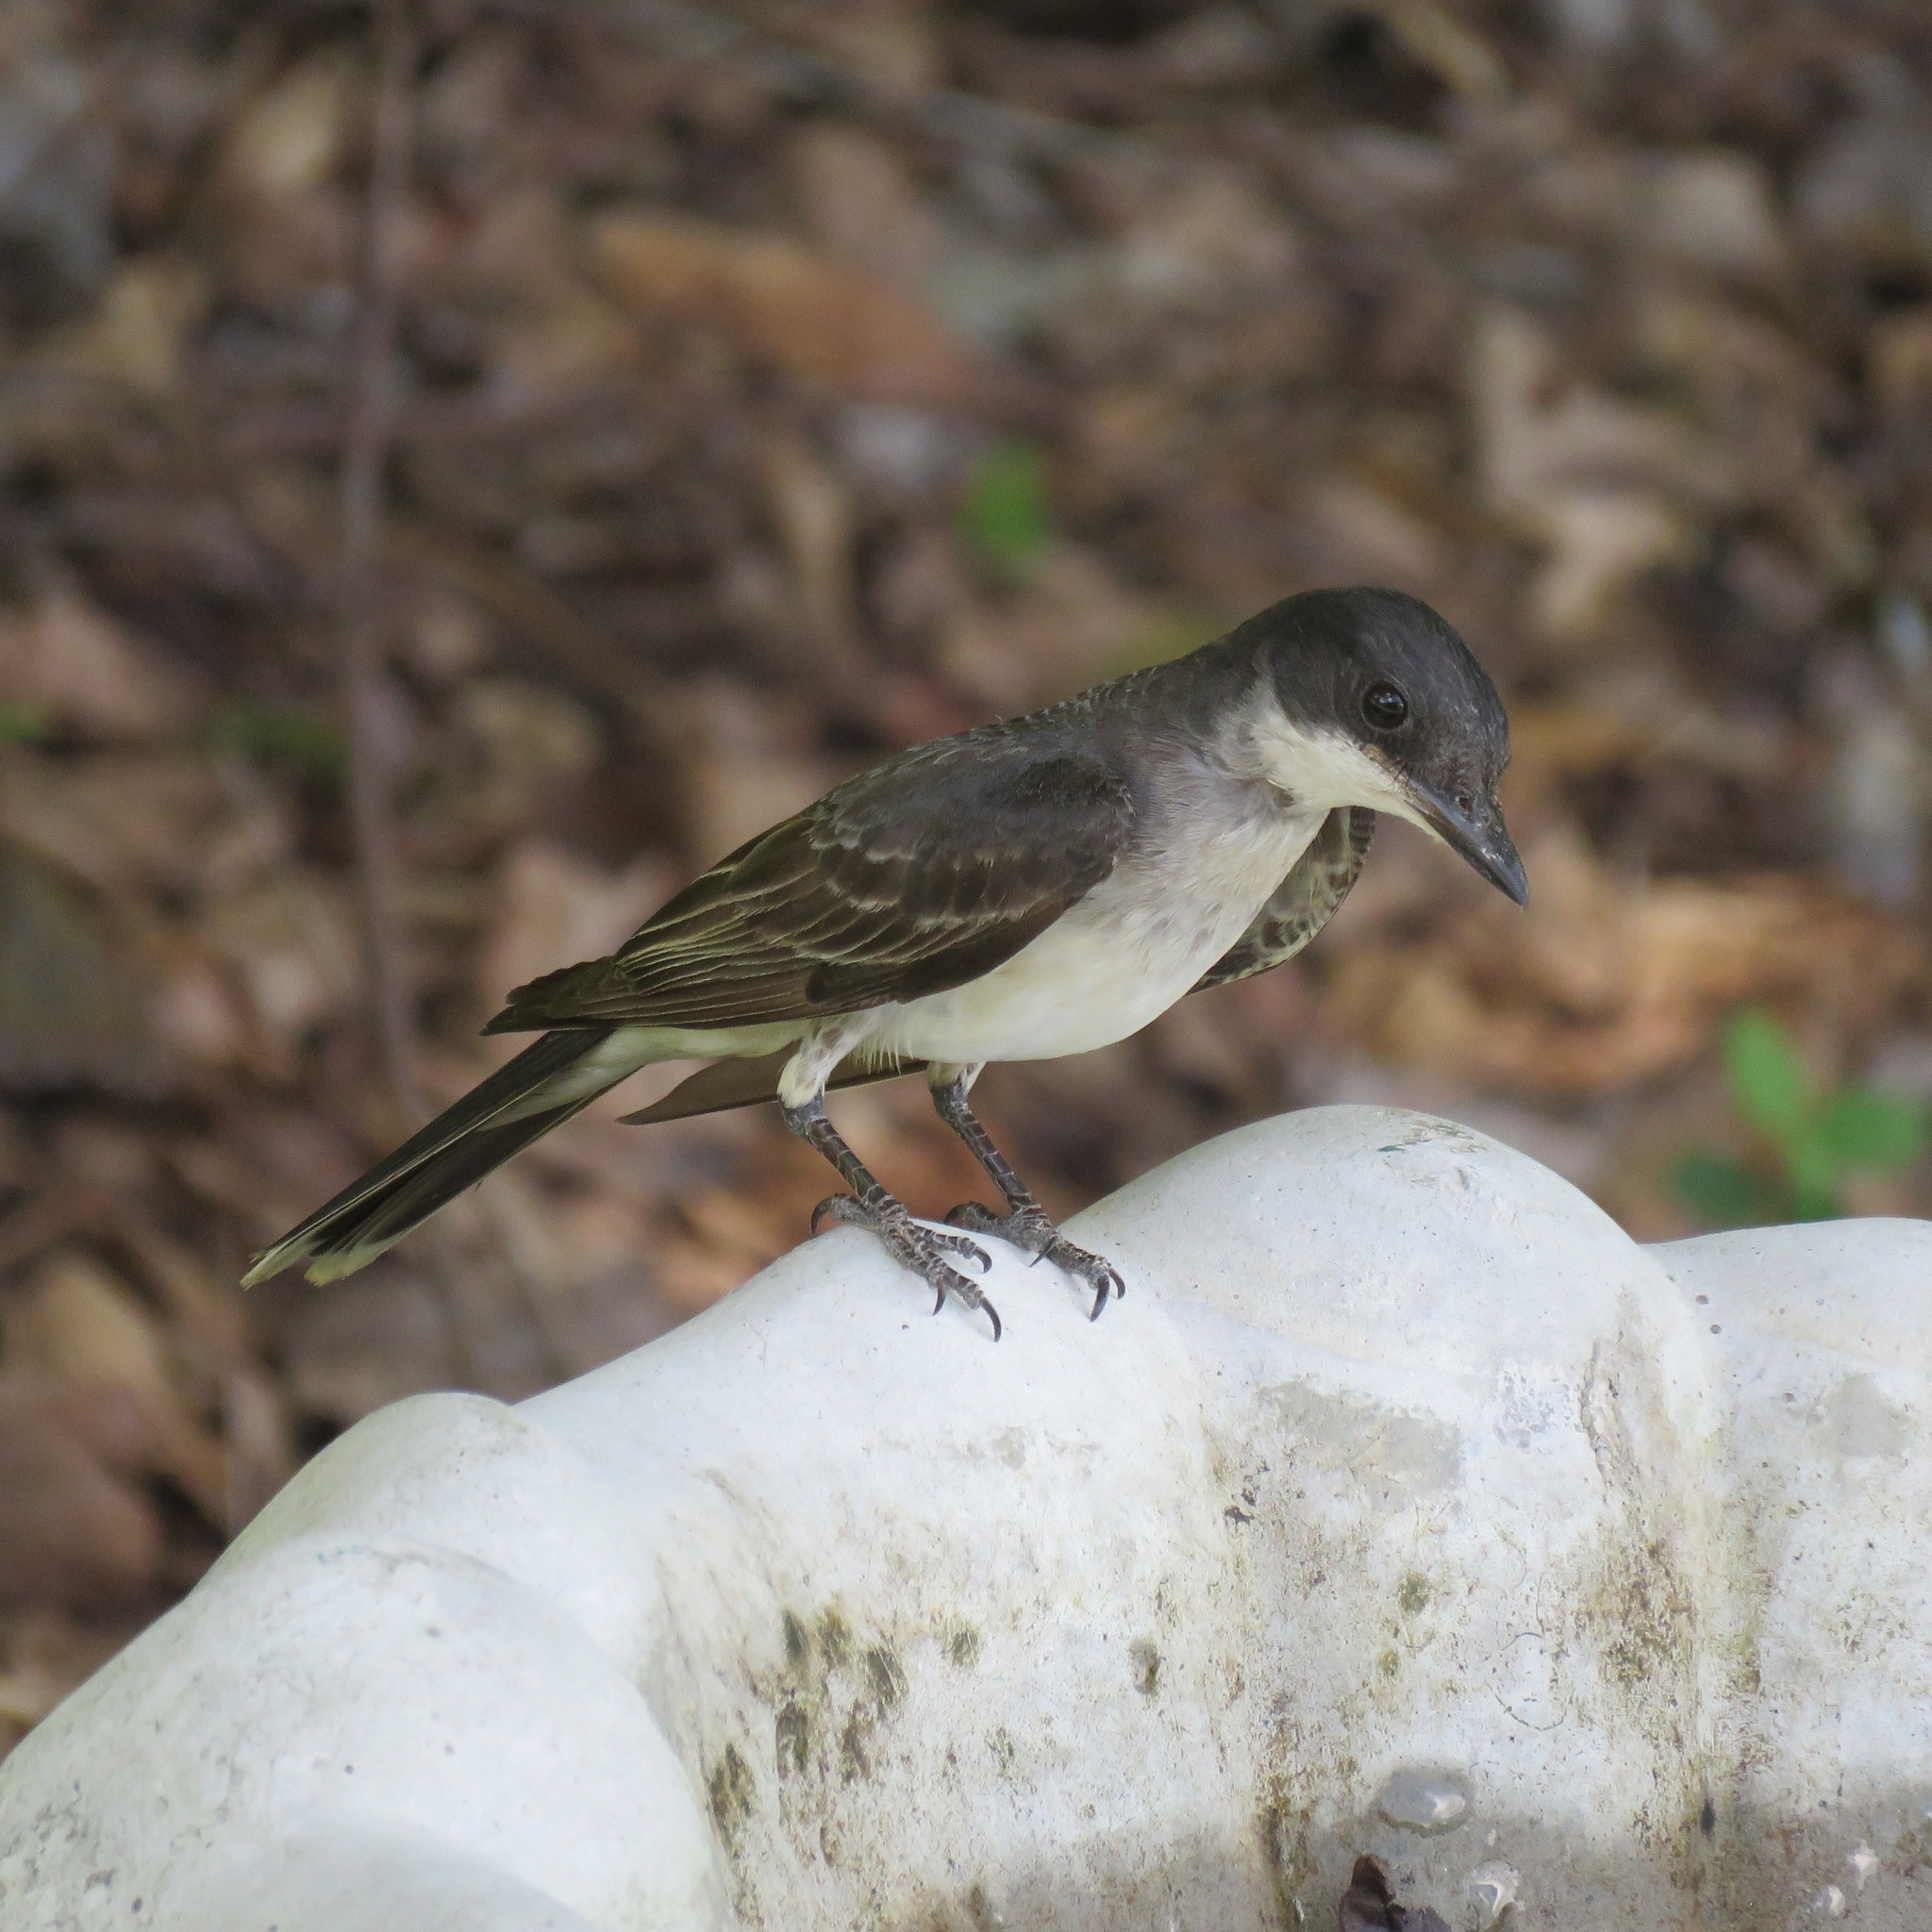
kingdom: Animalia
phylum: Chordata
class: Aves
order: Passeriformes
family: Tyrannidae
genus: Tyrannus
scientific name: Tyrannus tyrannus
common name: Eastern kingbird
